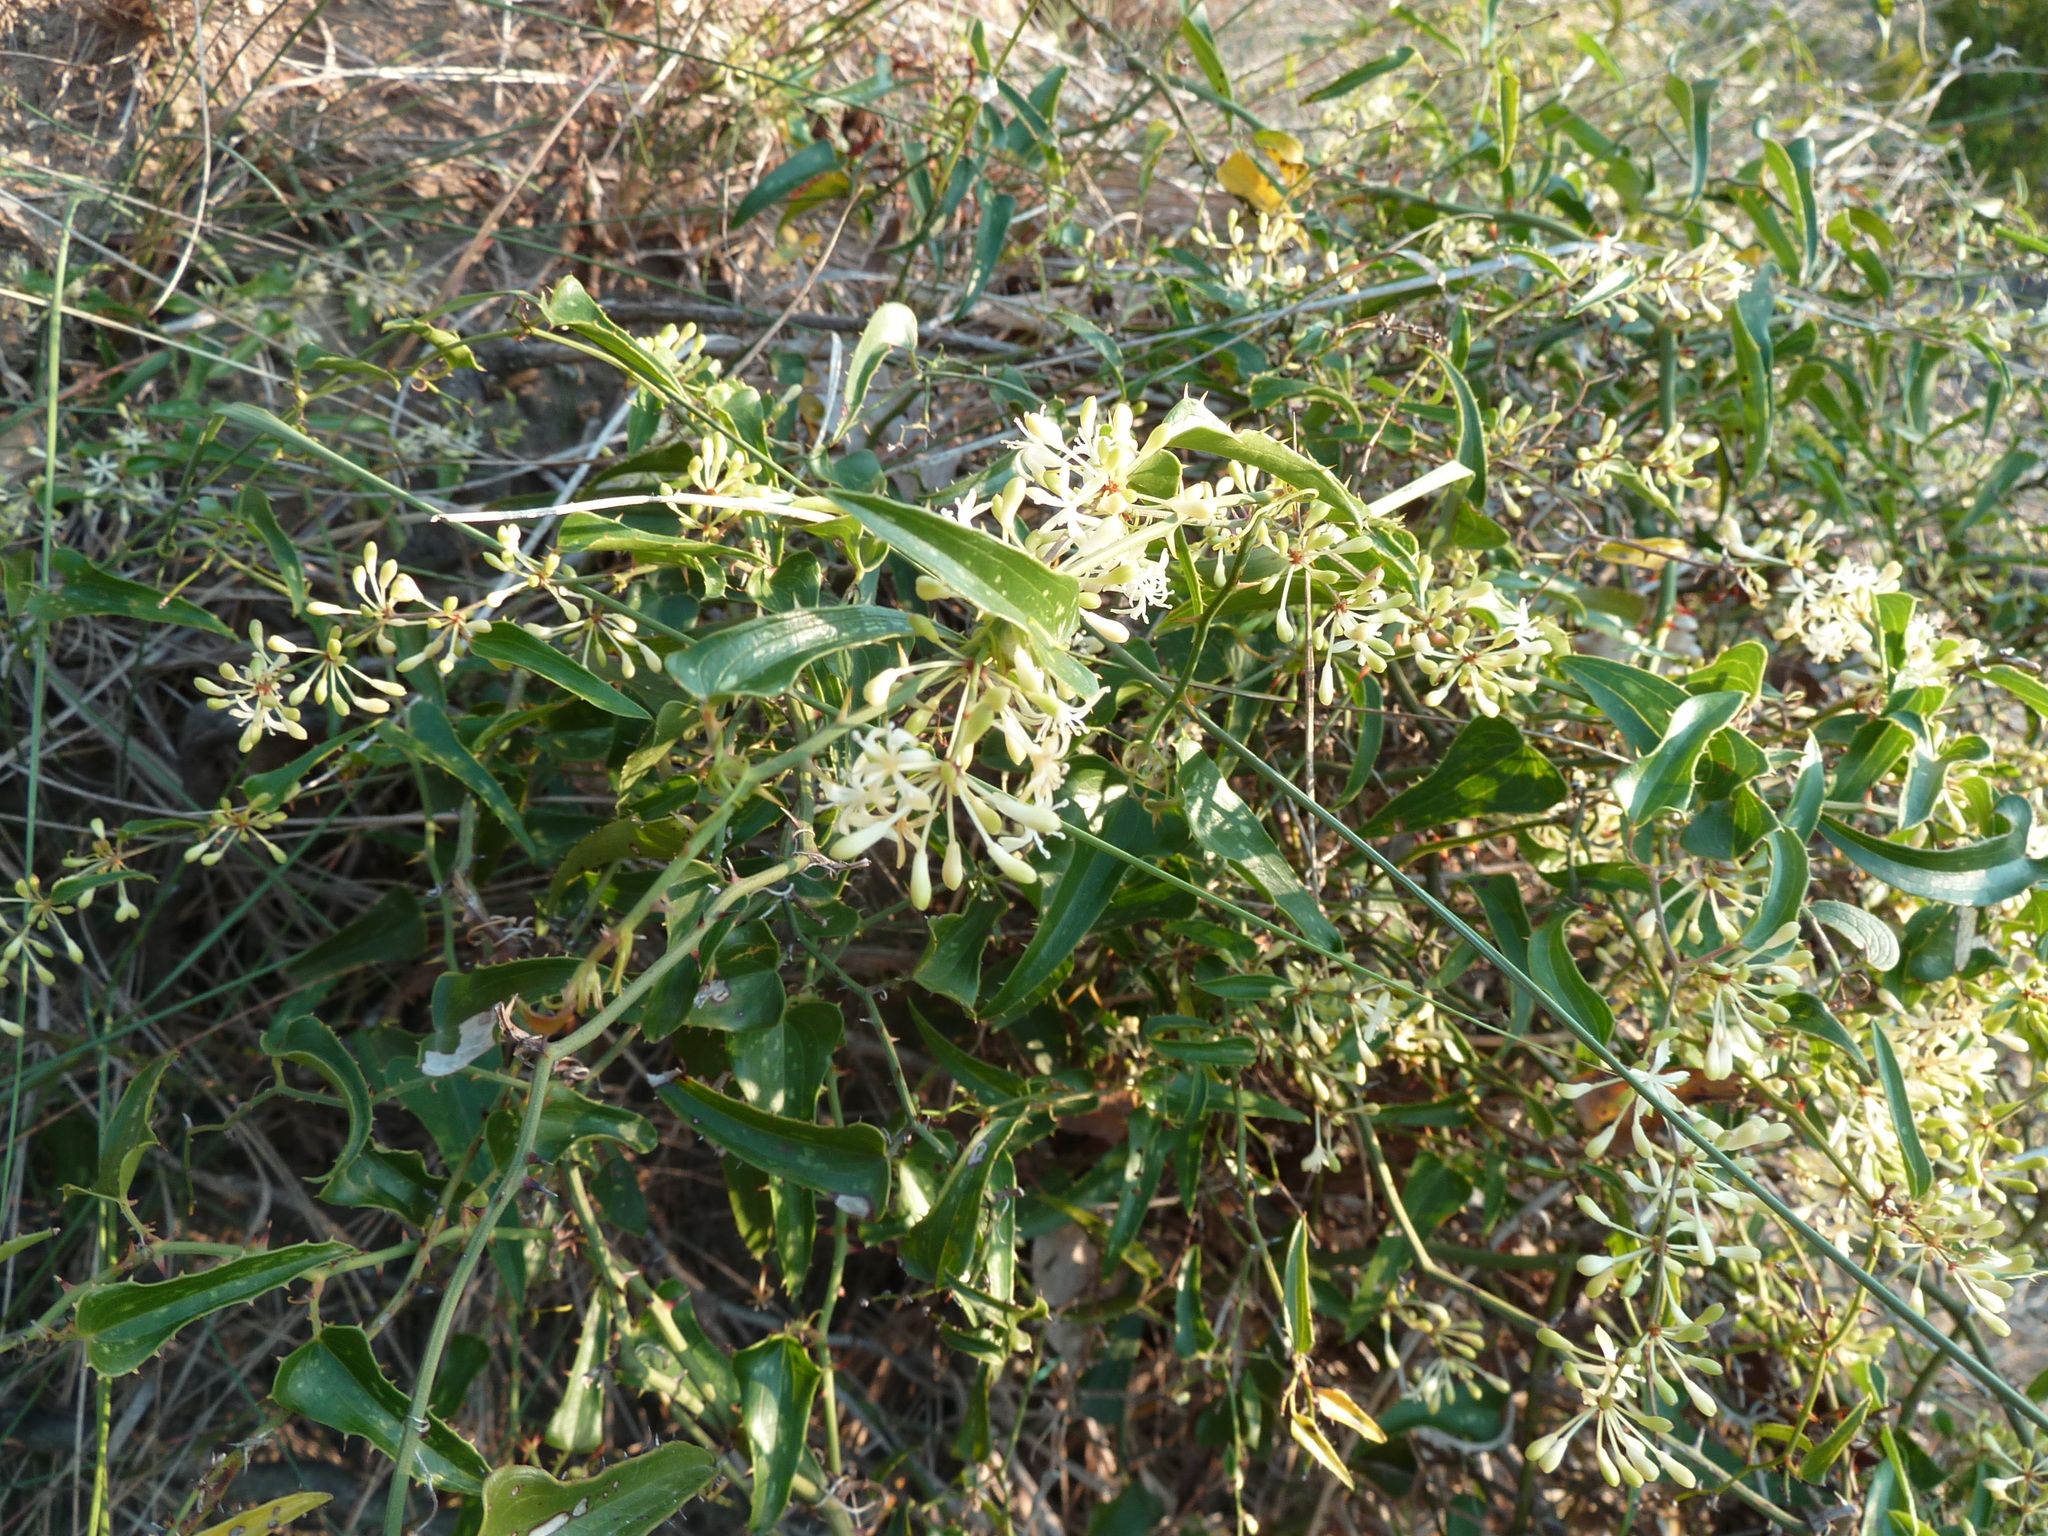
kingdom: Plantae
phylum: Tracheophyta
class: Liliopsida
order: Liliales
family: Smilacaceae
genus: Smilax
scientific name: Smilax aspera
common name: Common smilax
